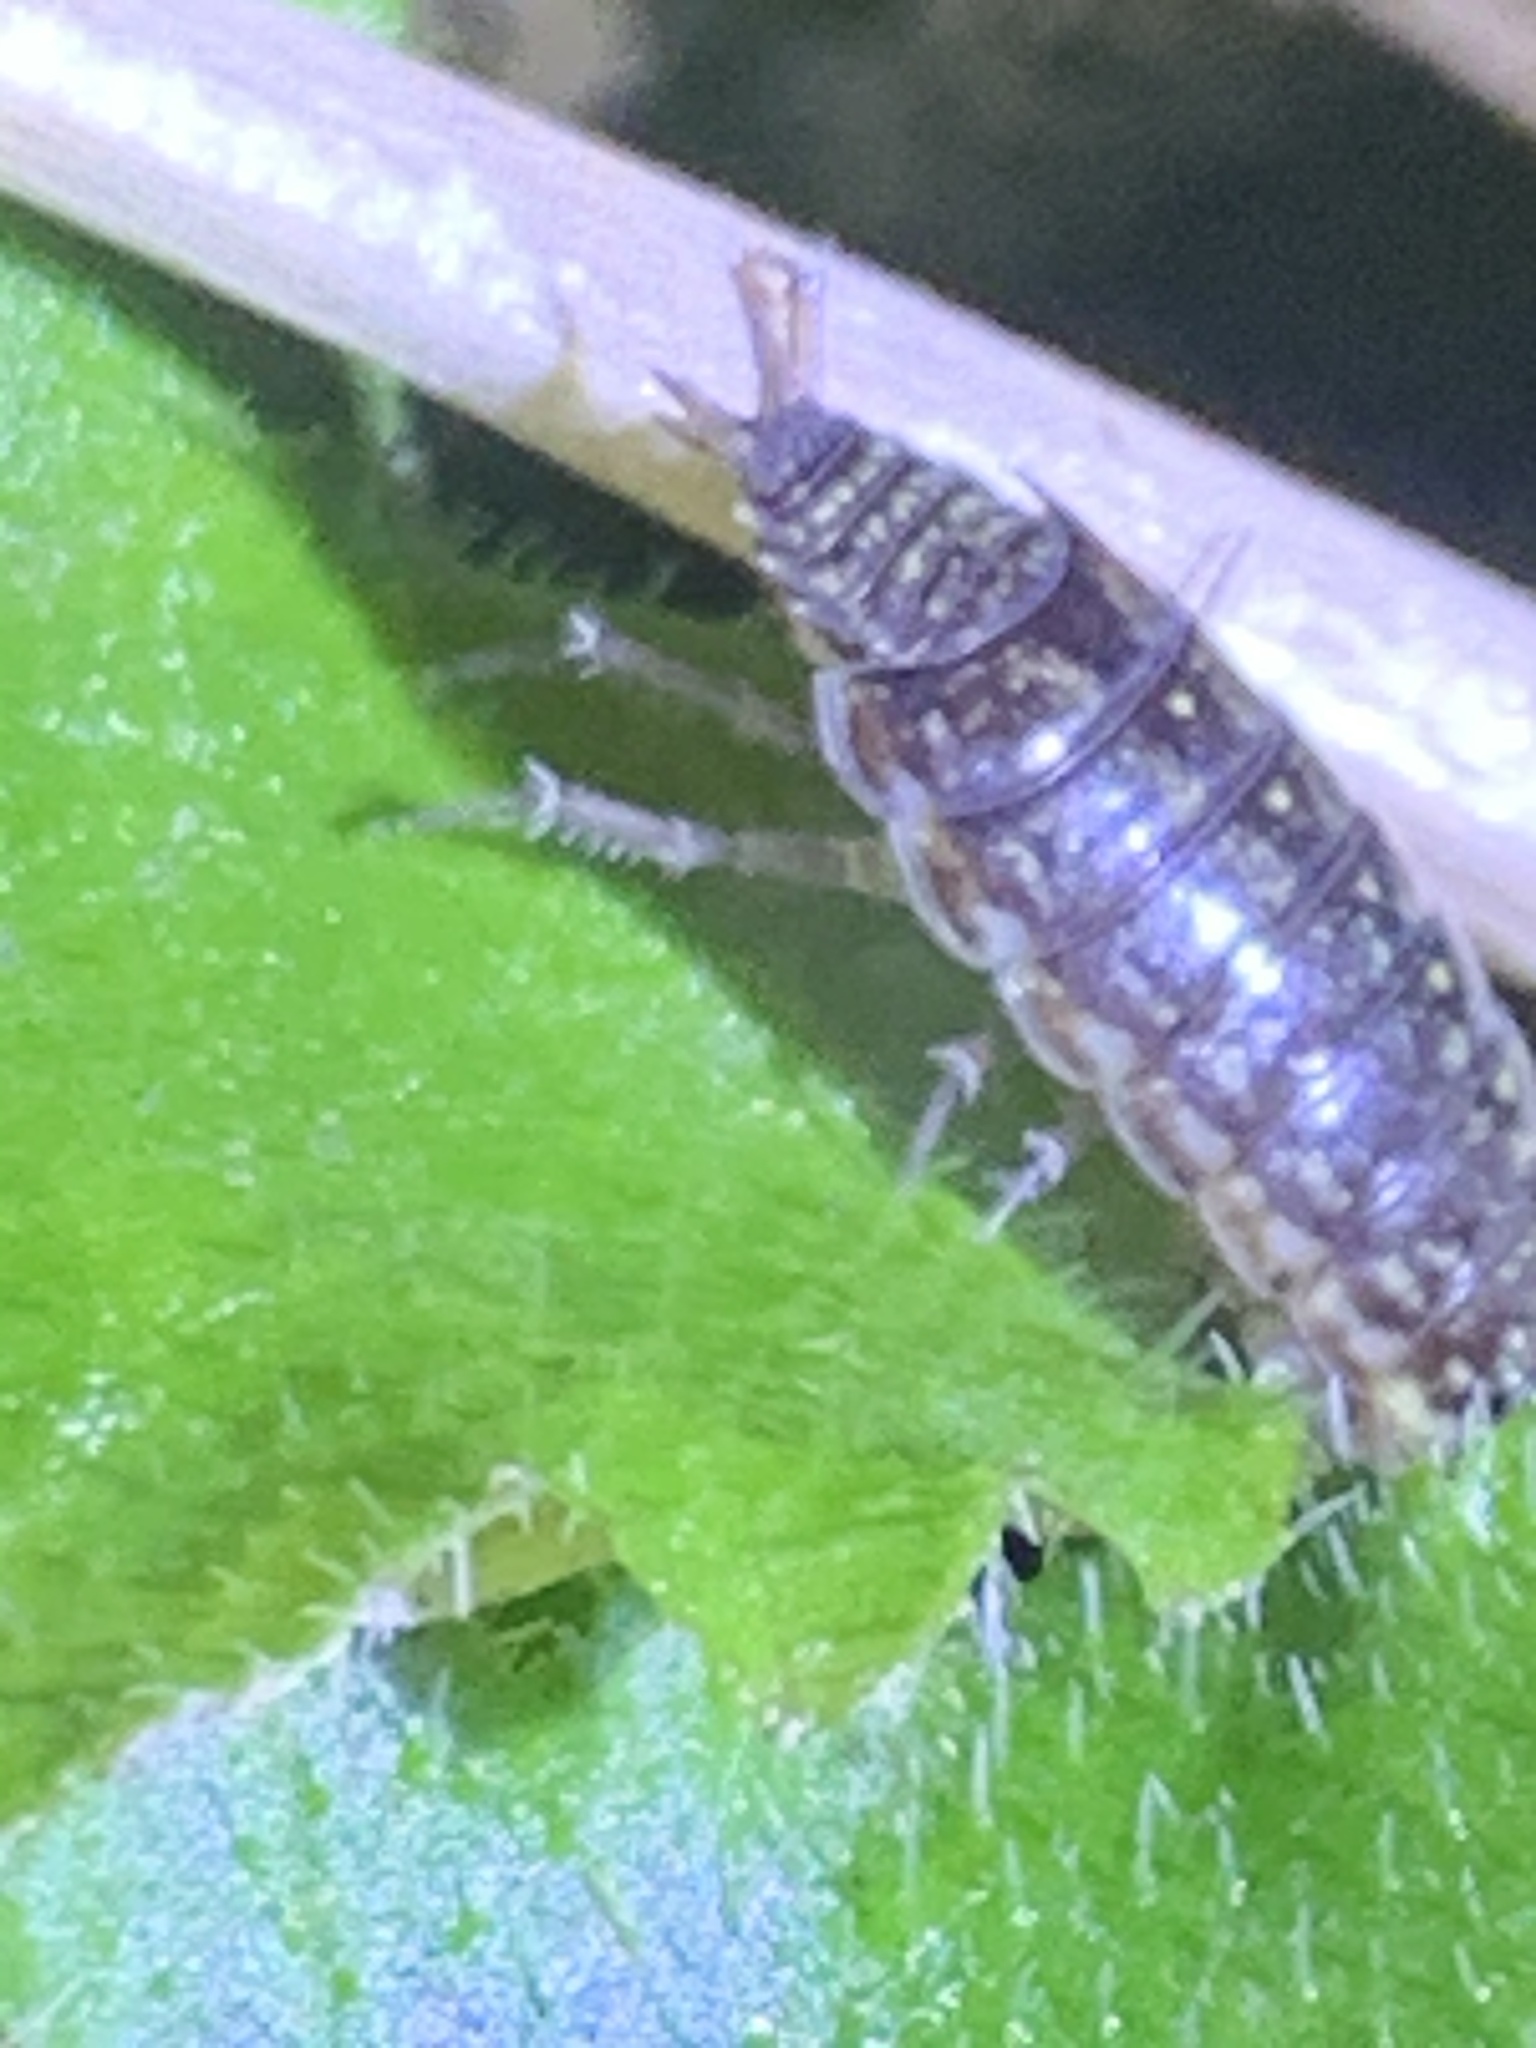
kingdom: Animalia
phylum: Arthropoda
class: Malacostraca
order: Isopoda
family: Philosciidae
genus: Philoscia
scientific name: Philoscia muscorum
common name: Common striped woodlouse
